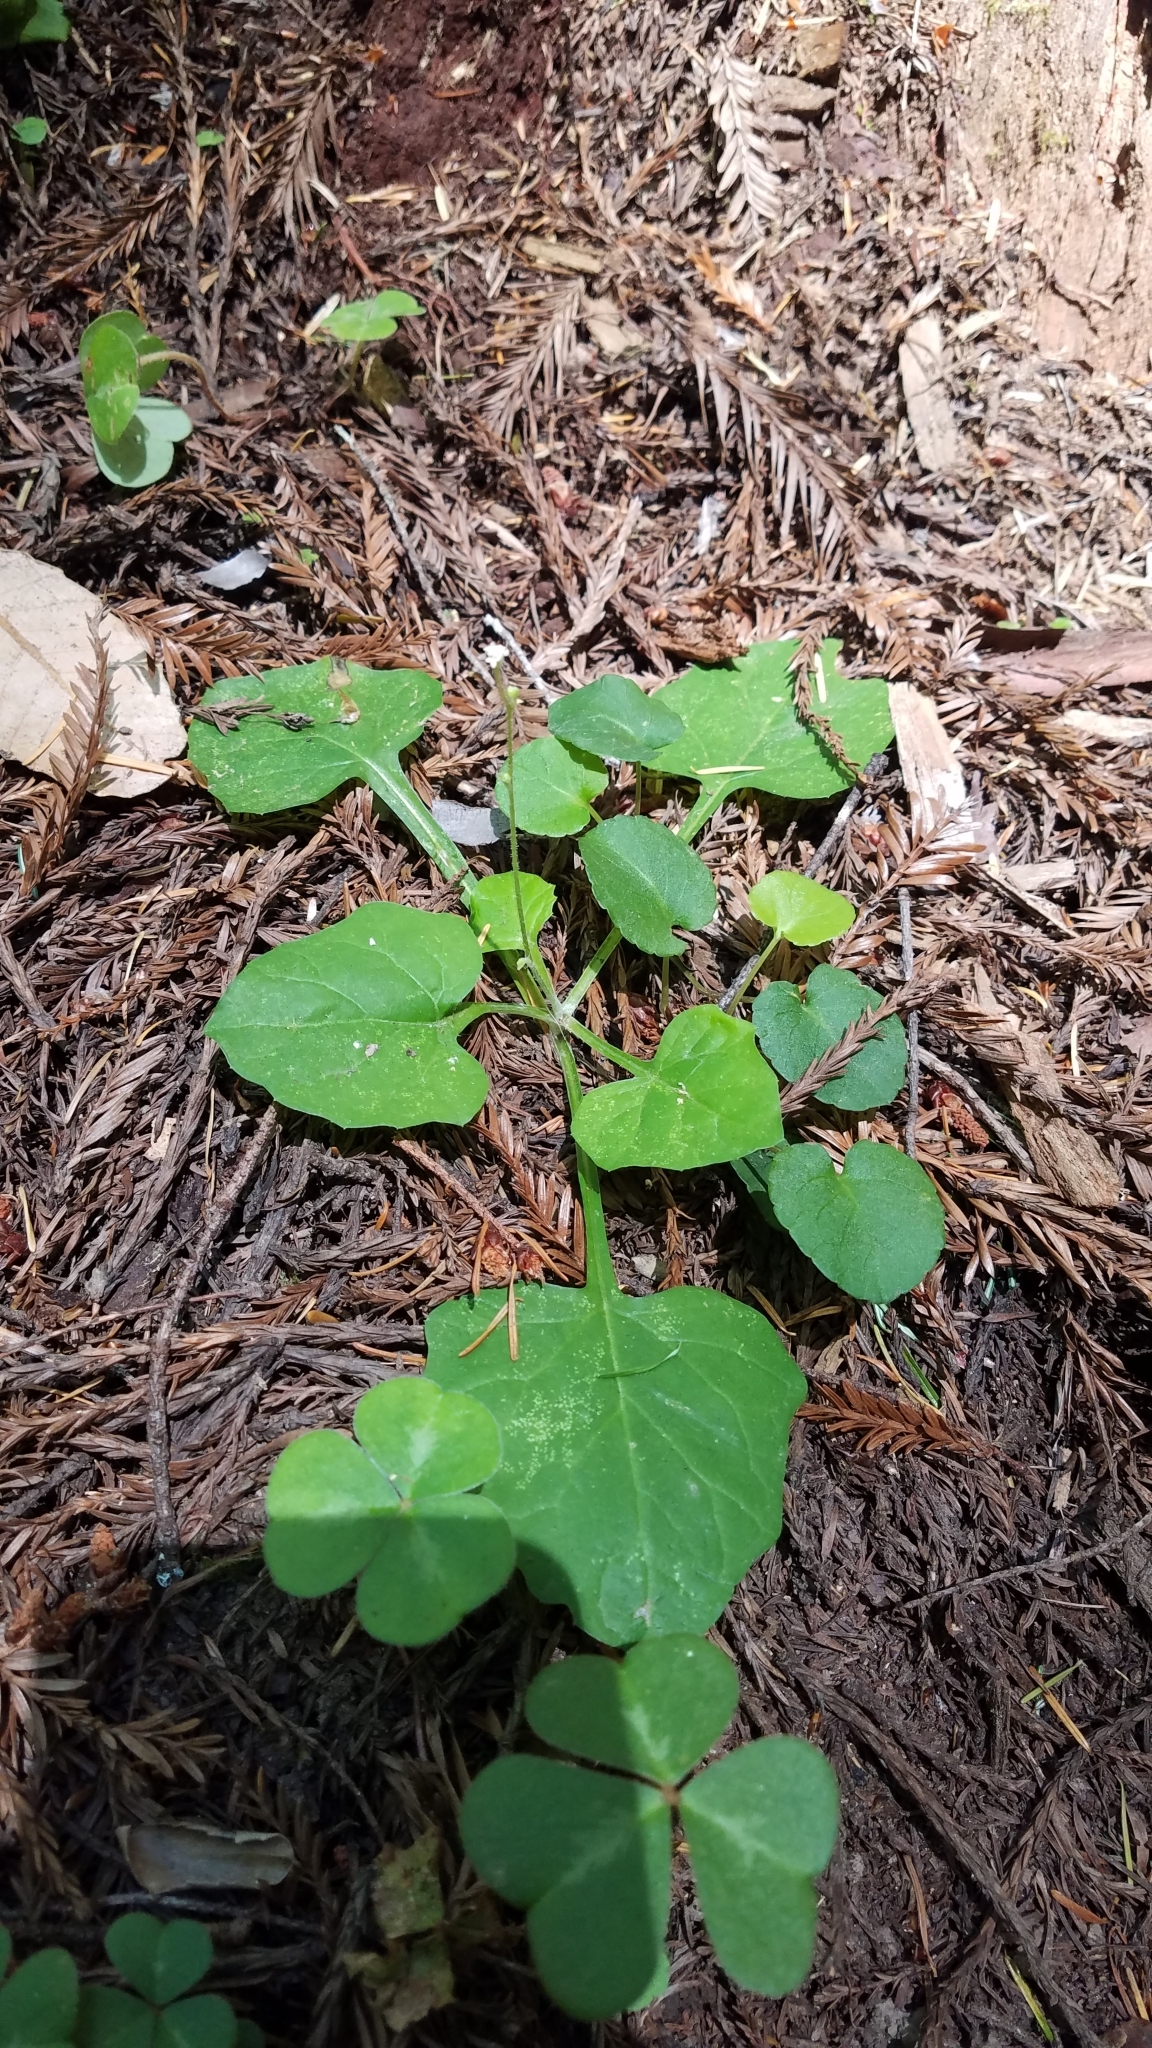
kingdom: Plantae
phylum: Tracheophyta
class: Magnoliopsida
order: Asterales
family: Asteraceae
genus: Adenocaulon
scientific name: Adenocaulon bicolor
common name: Trailplant
